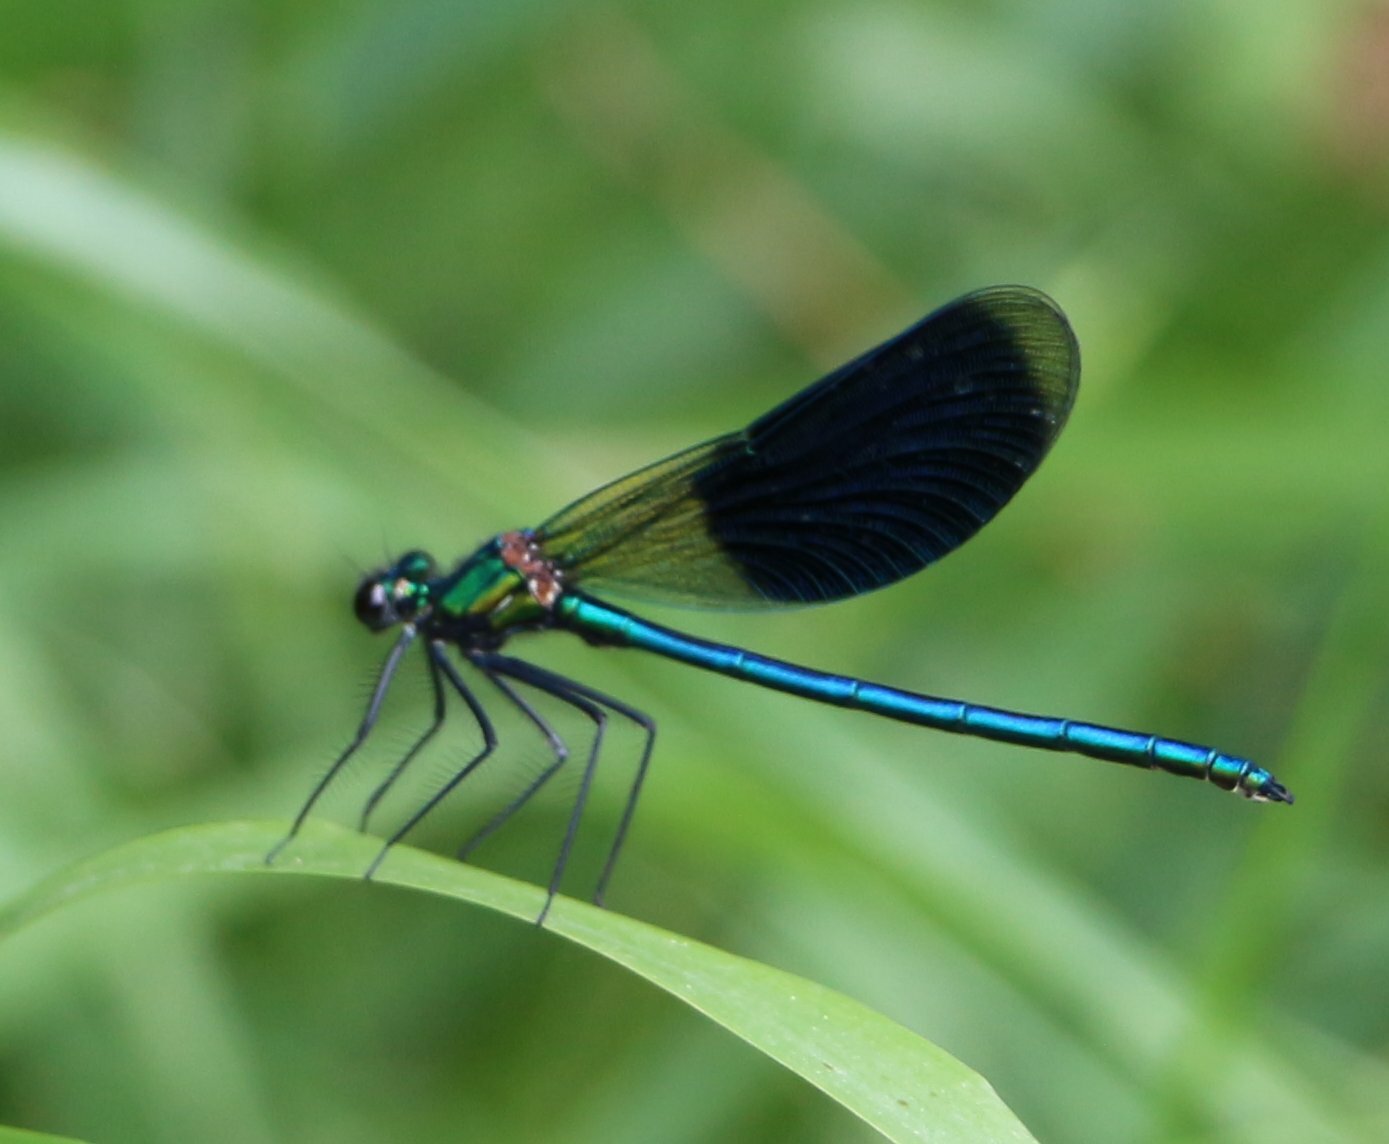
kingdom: Animalia
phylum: Arthropoda
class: Insecta
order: Odonata
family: Calopterygidae
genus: Calopteryx
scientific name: Calopteryx splendens
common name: Banded demoiselle
